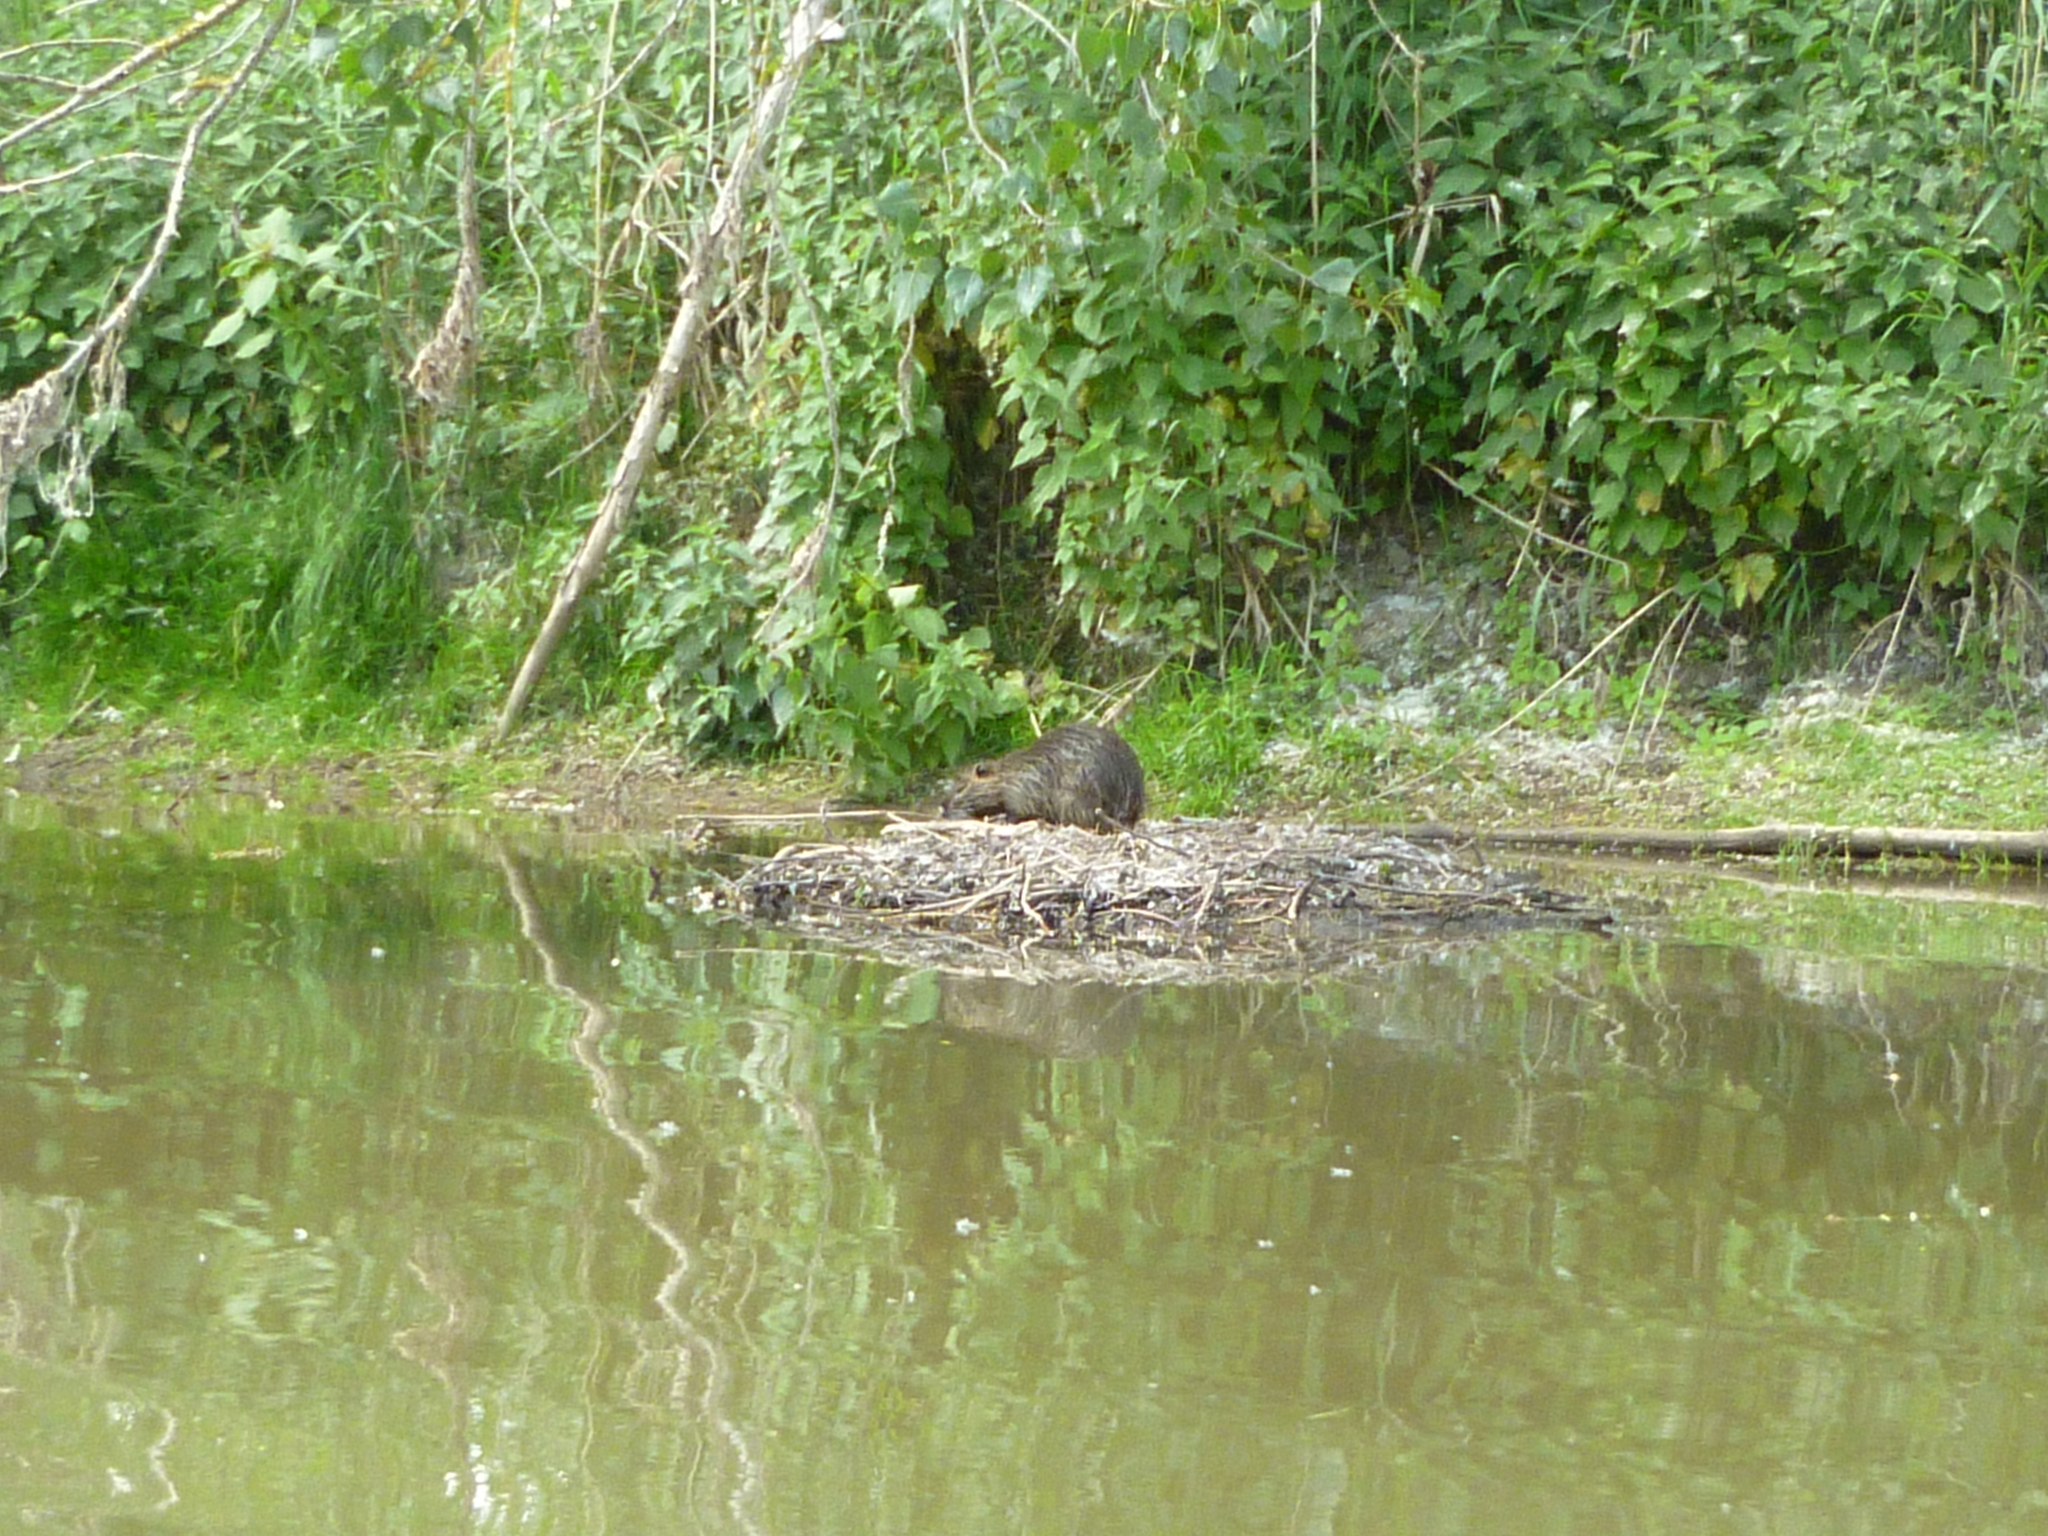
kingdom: Animalia
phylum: Chordata
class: Mammalia
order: Rodentia
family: Myocastoridae
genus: Myocastor
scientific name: Myocastor coypus
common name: Coypu
